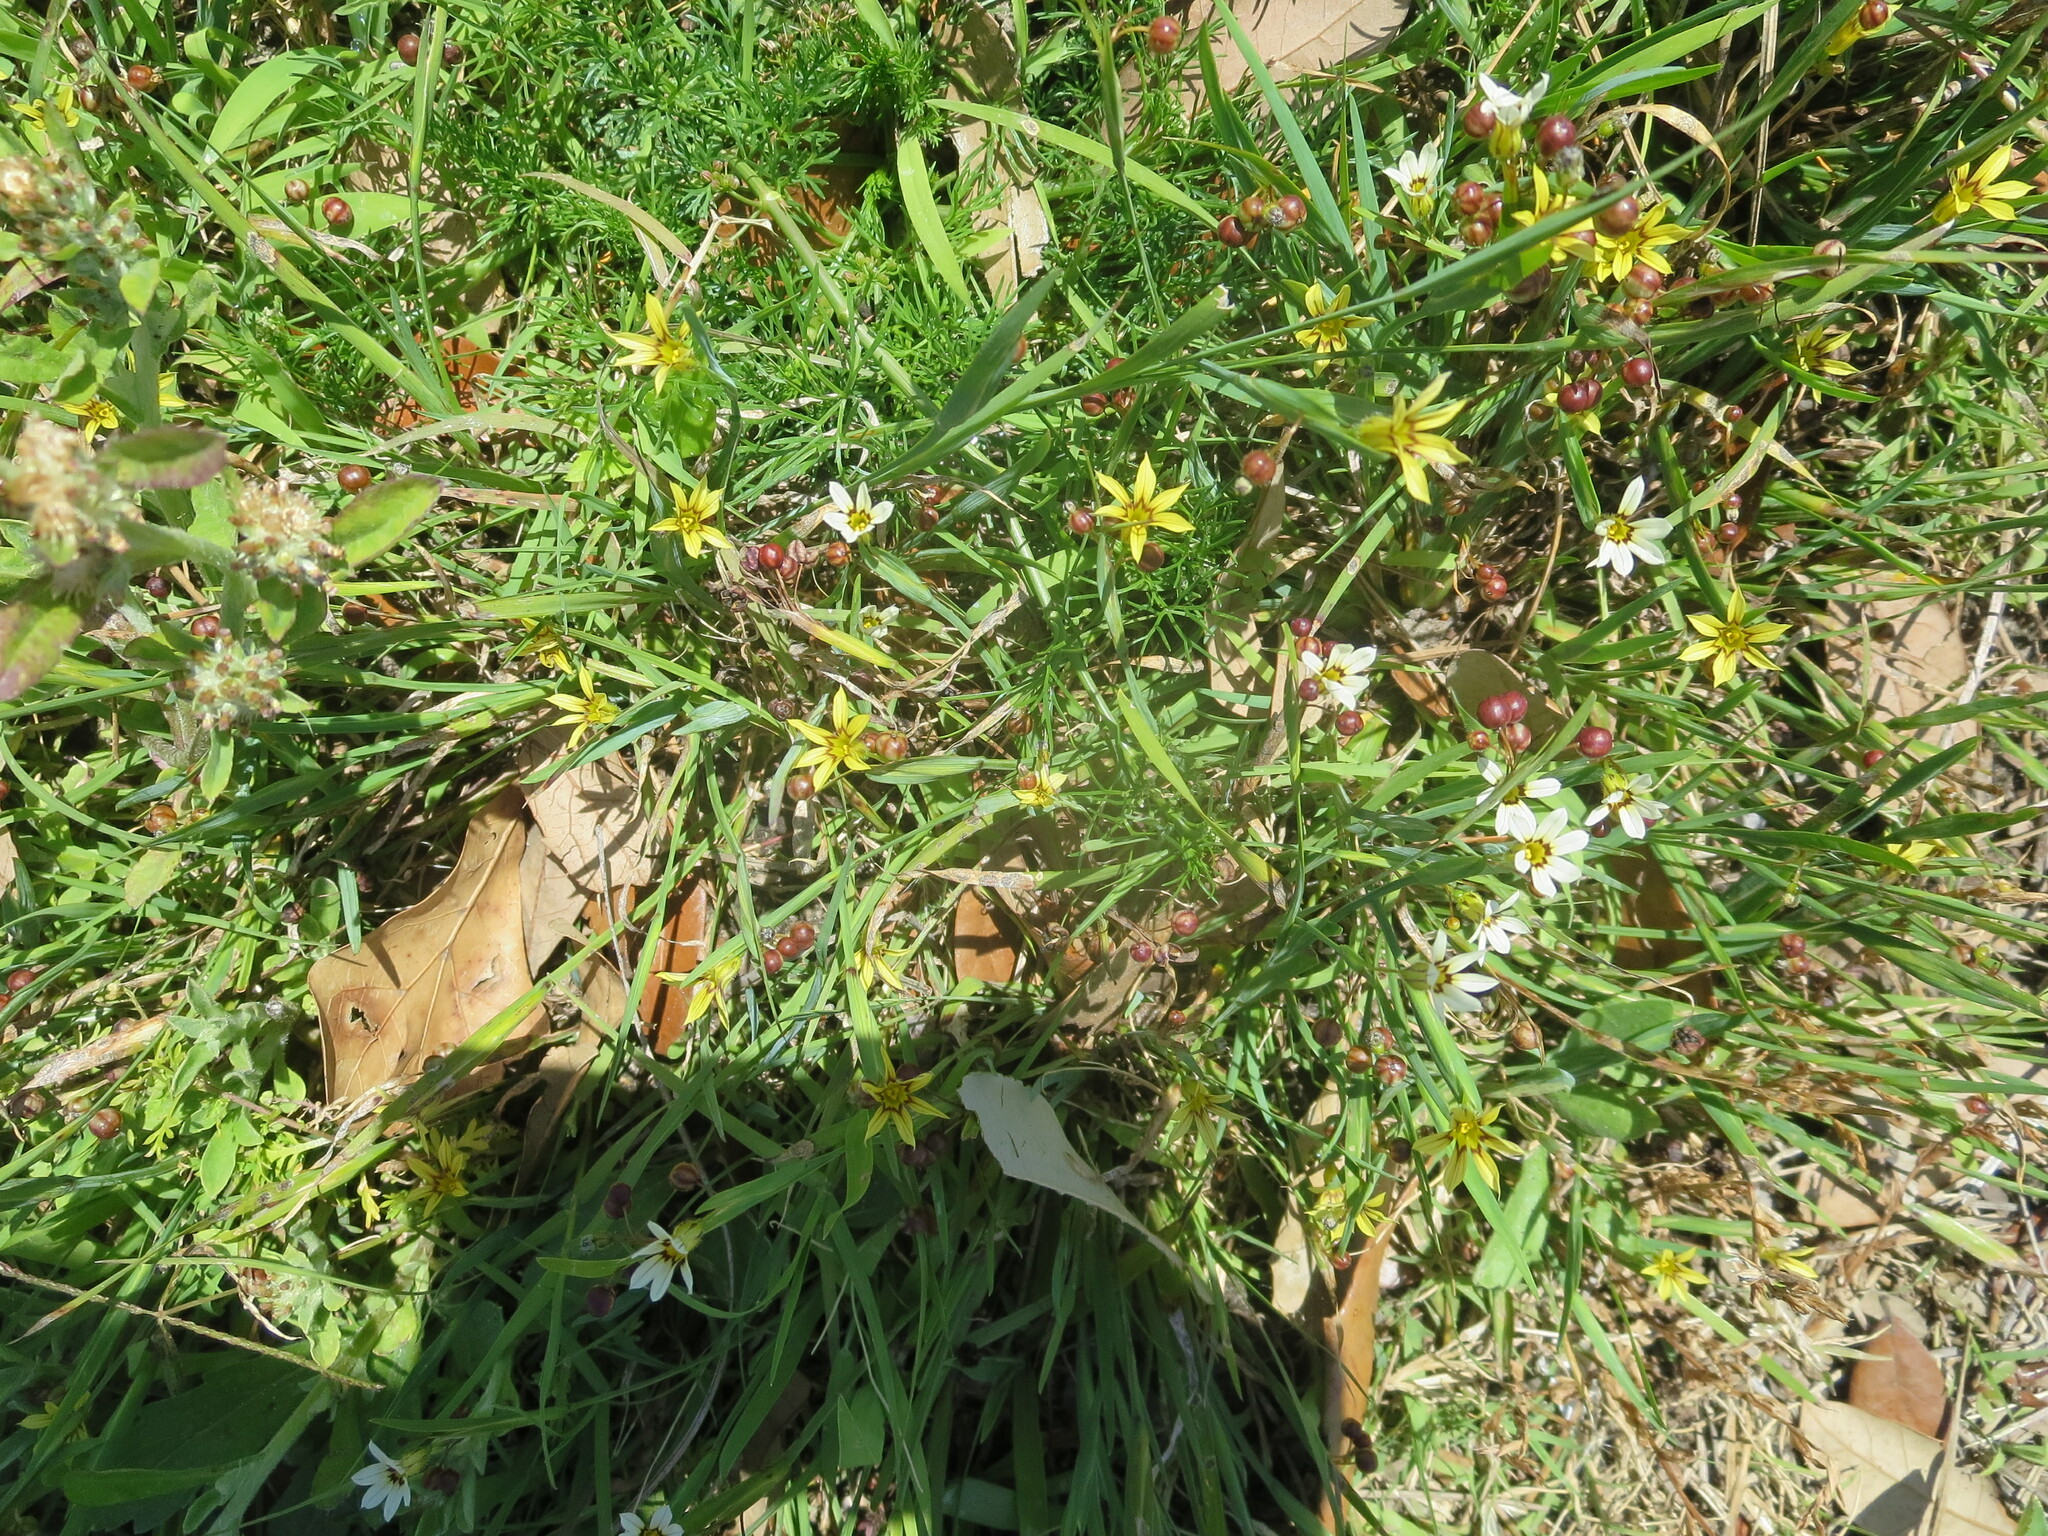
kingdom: Plantae
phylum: Tracheophyta
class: Liliopsida
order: Asparagales
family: Iridaceae
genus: Sisyrinchium
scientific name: Sisyrinchium micranthum
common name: Bermuda pigroot
